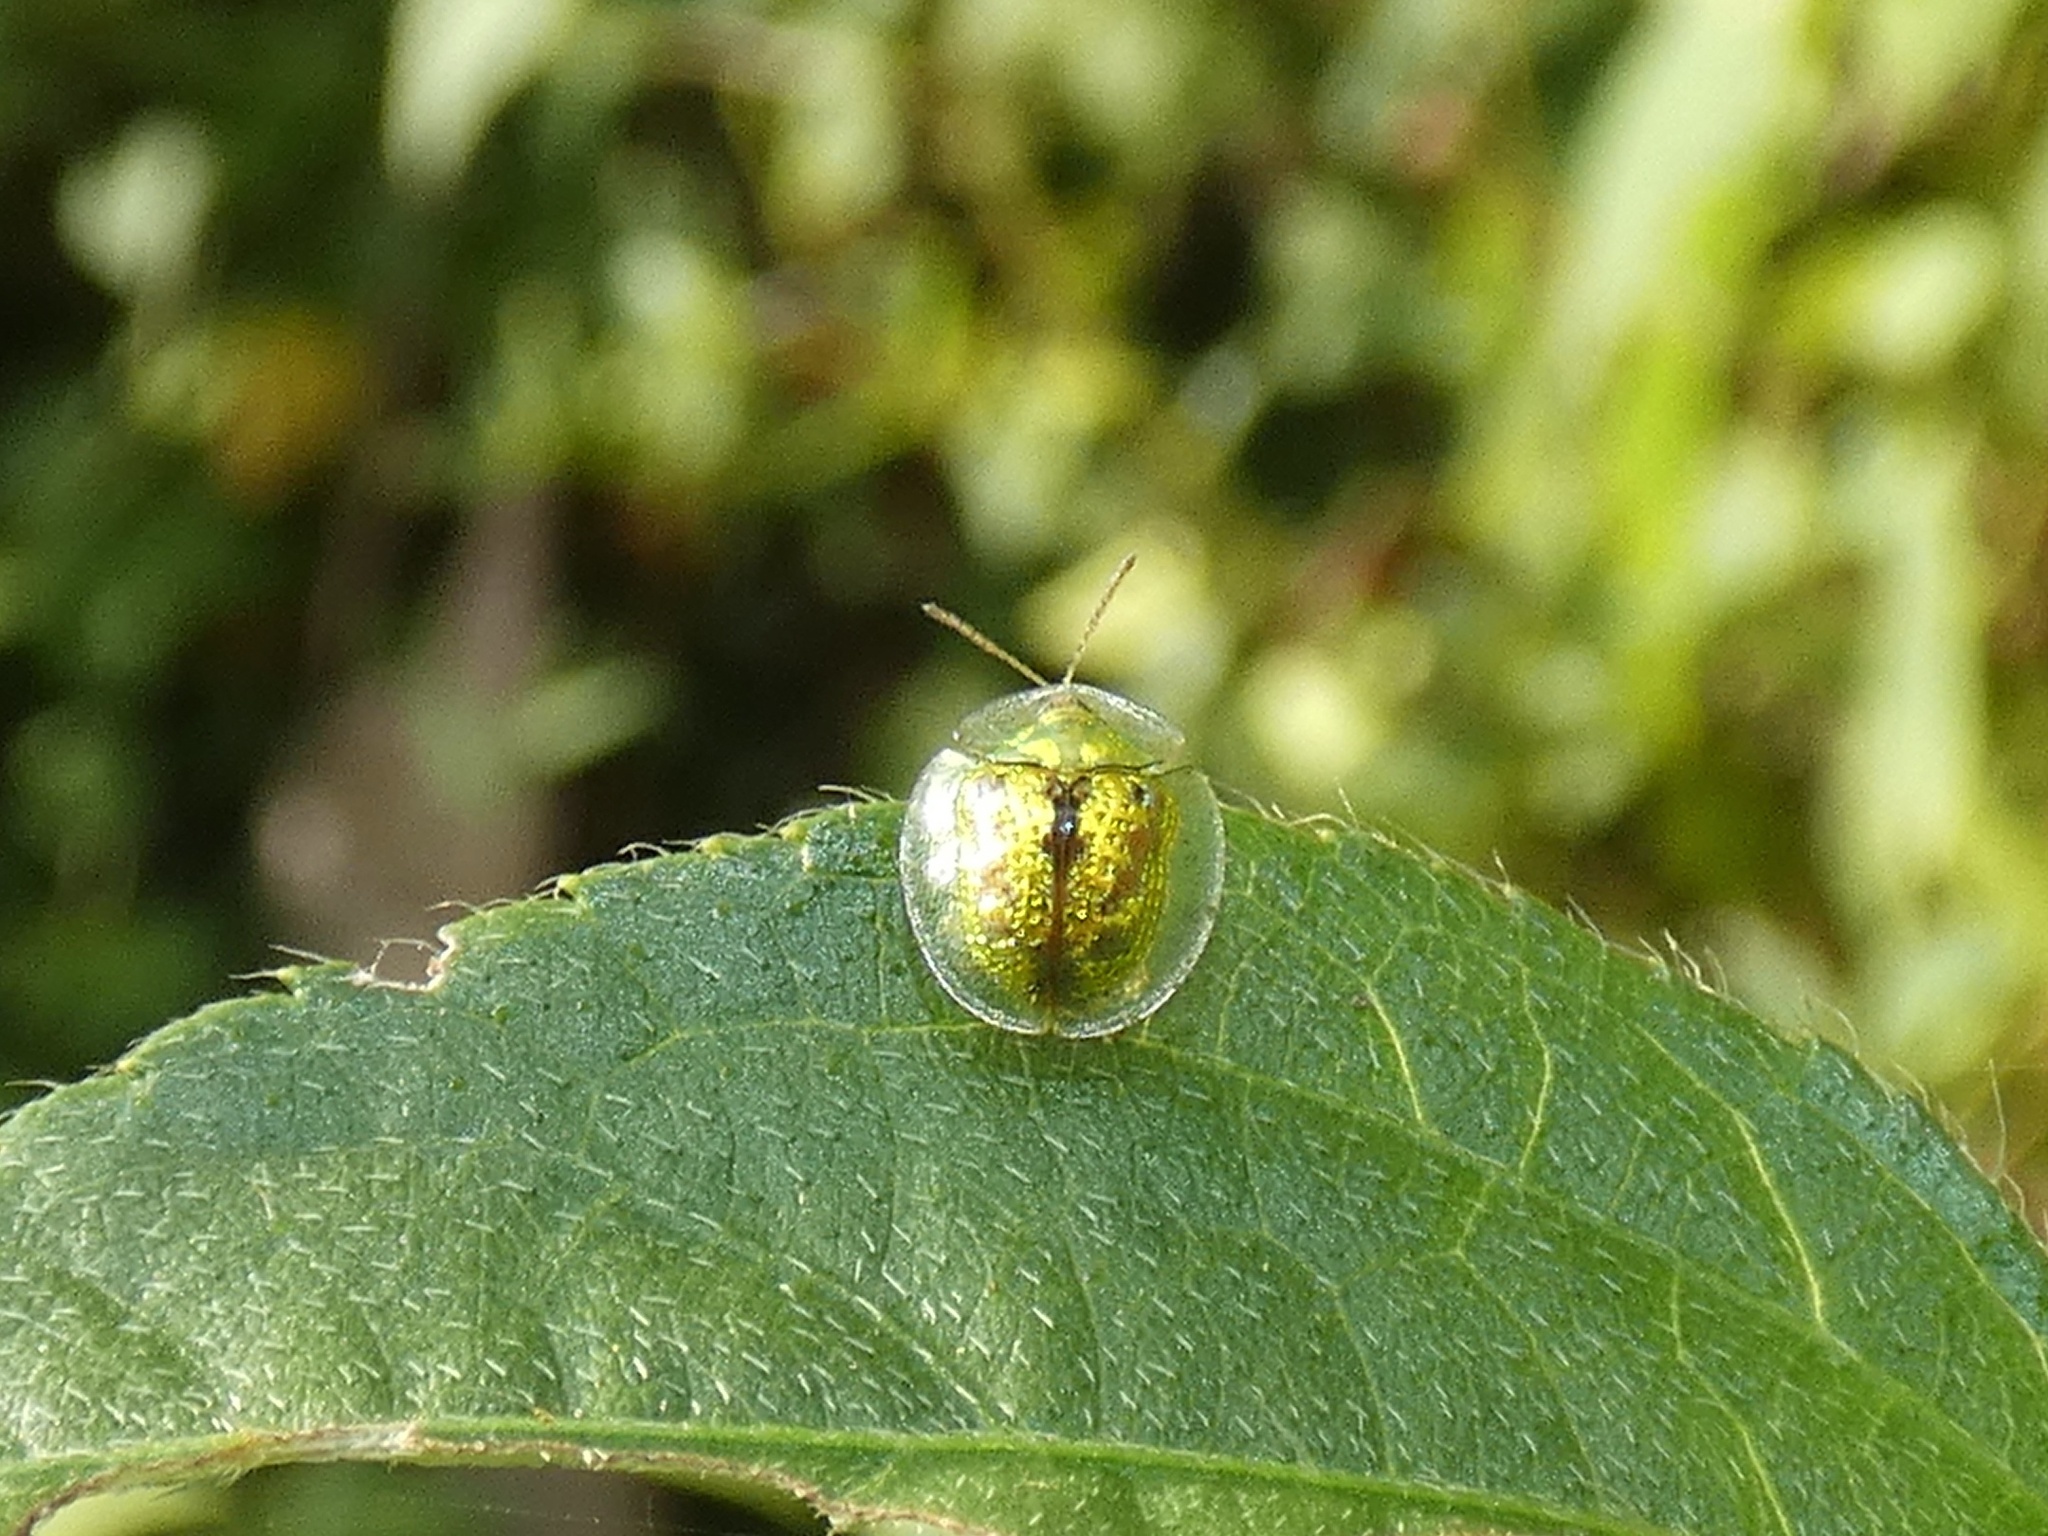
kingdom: Animalia
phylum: Arthropoda
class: Insecta
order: Coleoptera
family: Chrysomelidae
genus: Cassida
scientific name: Cassida circumdata
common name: Tortoise beetle
